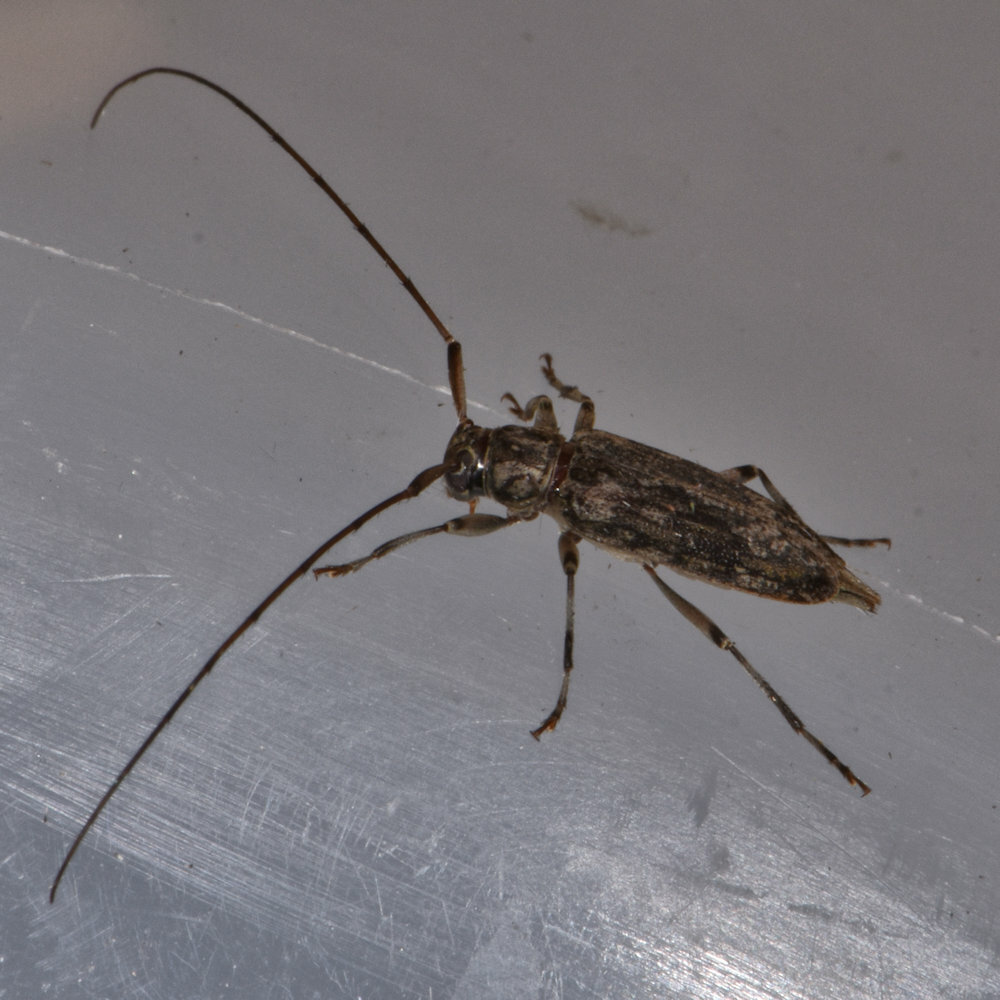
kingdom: Animalia
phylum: Arthropoda
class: Insecta
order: Coleoptera
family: Cerambycidae
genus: Lepturges
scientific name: Lepturges confluens
